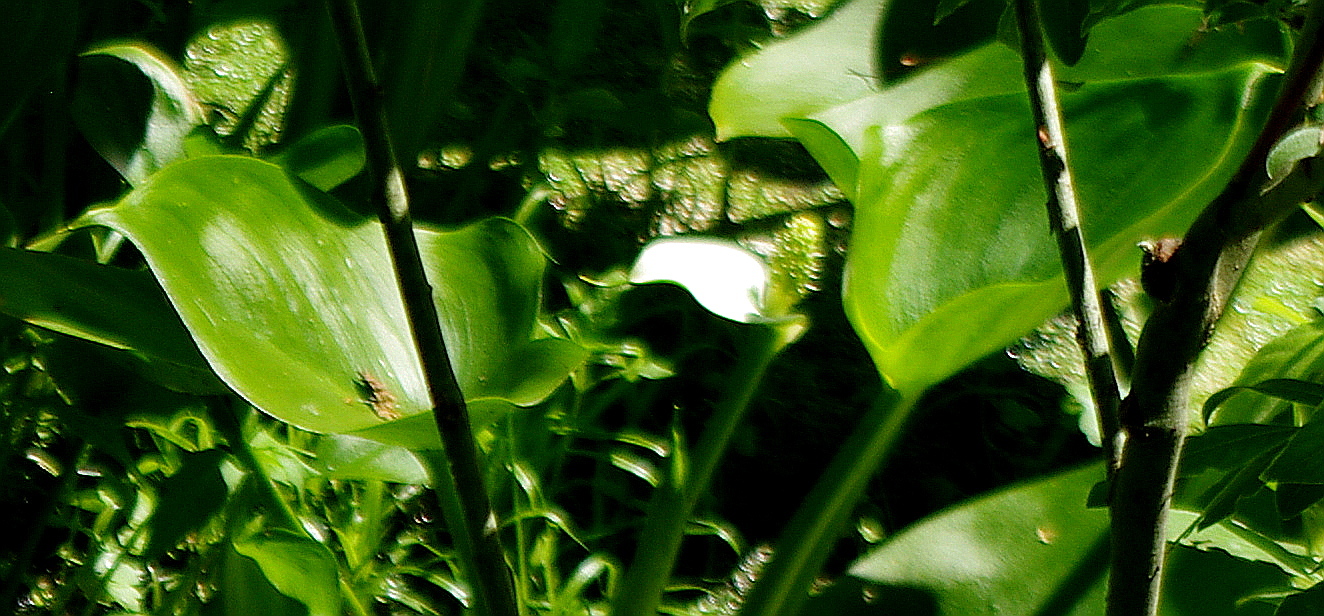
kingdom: Plantae
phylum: Tracheophyta
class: Liliopsida
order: Alismatales
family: Araceae
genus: Calla
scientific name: Calla palustris
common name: Bog arum
